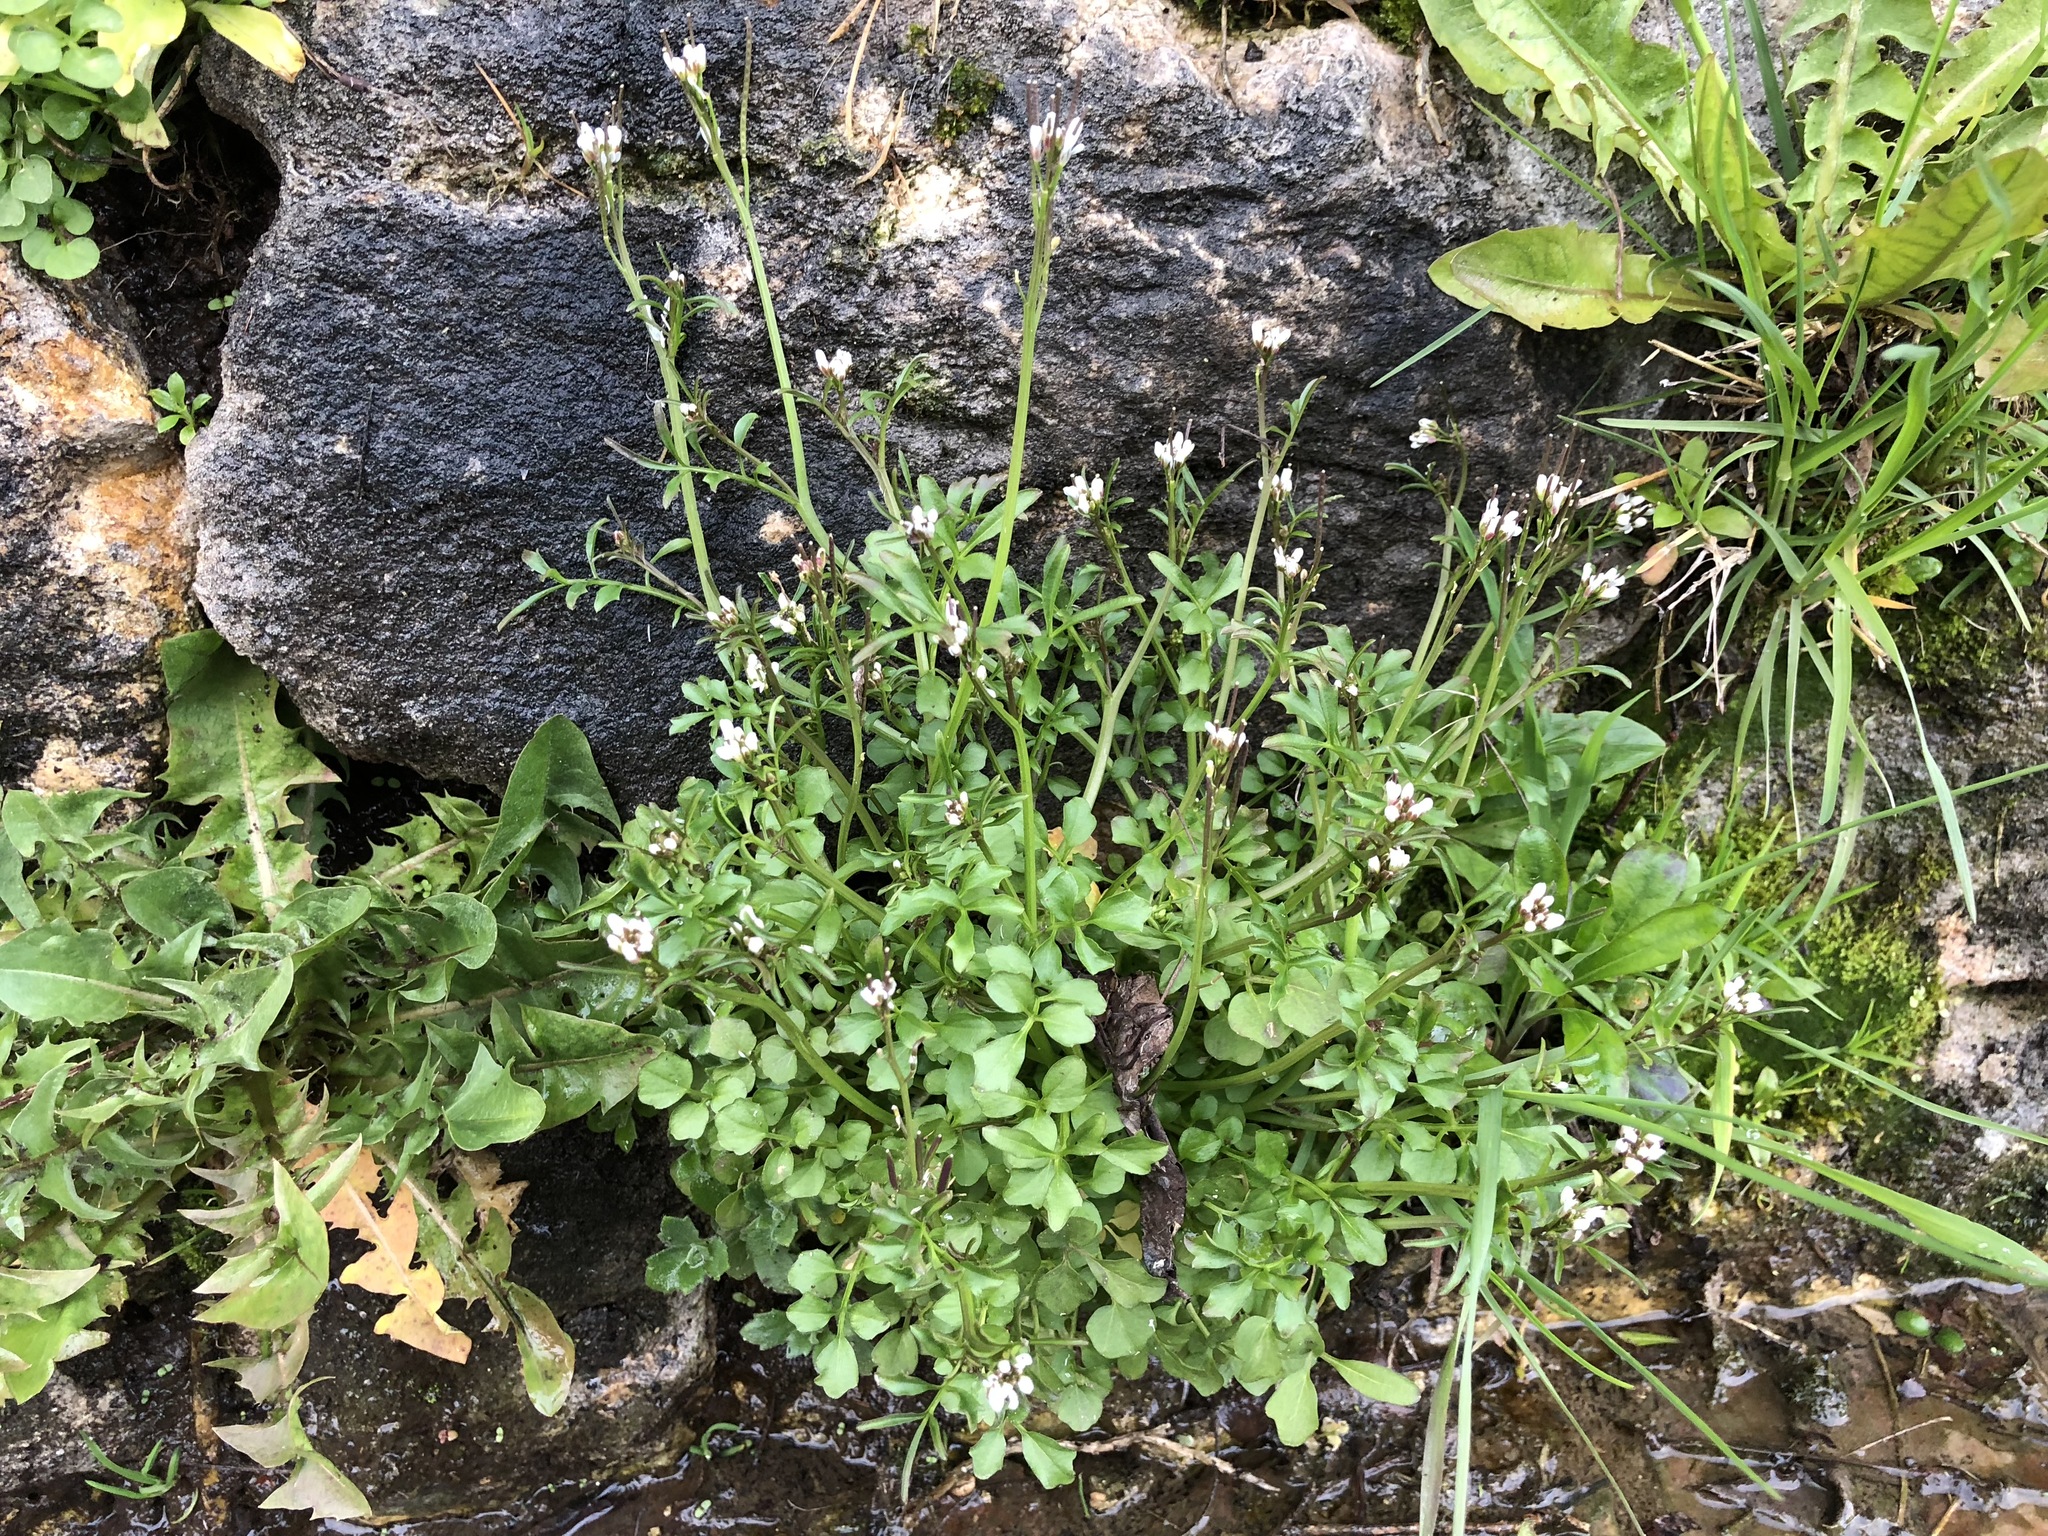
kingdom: Plantae
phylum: Tracheophyta
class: Magnoliopsida
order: Brassicales
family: Brassicaceae
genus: Cardamine
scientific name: Cardamine hirsuta
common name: Hairy bittercress
